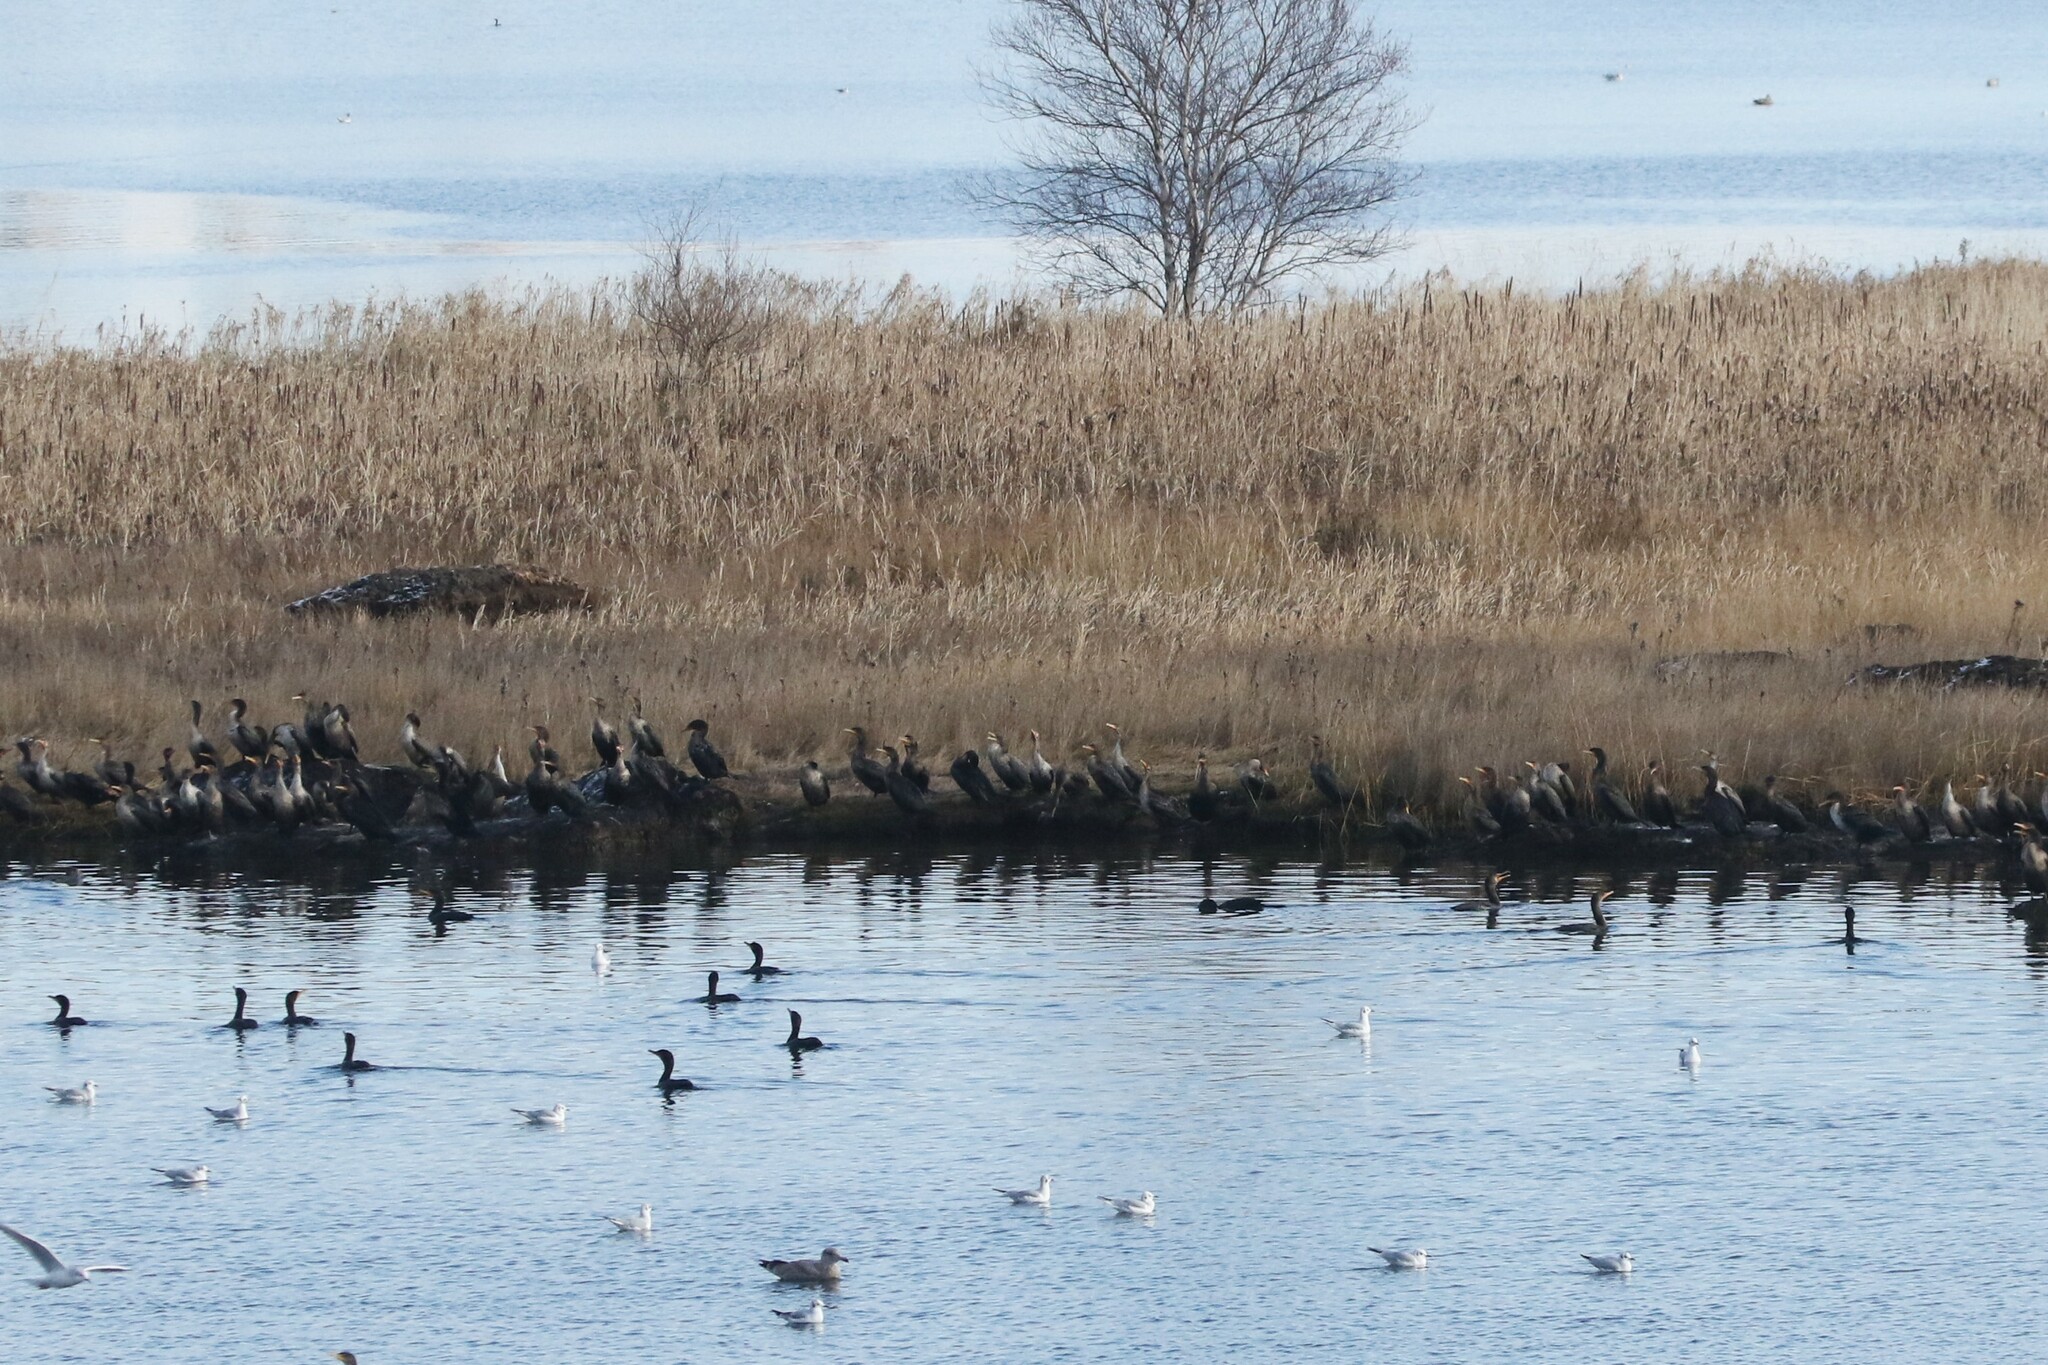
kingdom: Animalia
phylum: Chordata
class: Aves
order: Suliformes
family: Phalacrocoracidae
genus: Phalacrocorax
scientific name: Phalacrocorax auritus
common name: Double-crested cormorant
